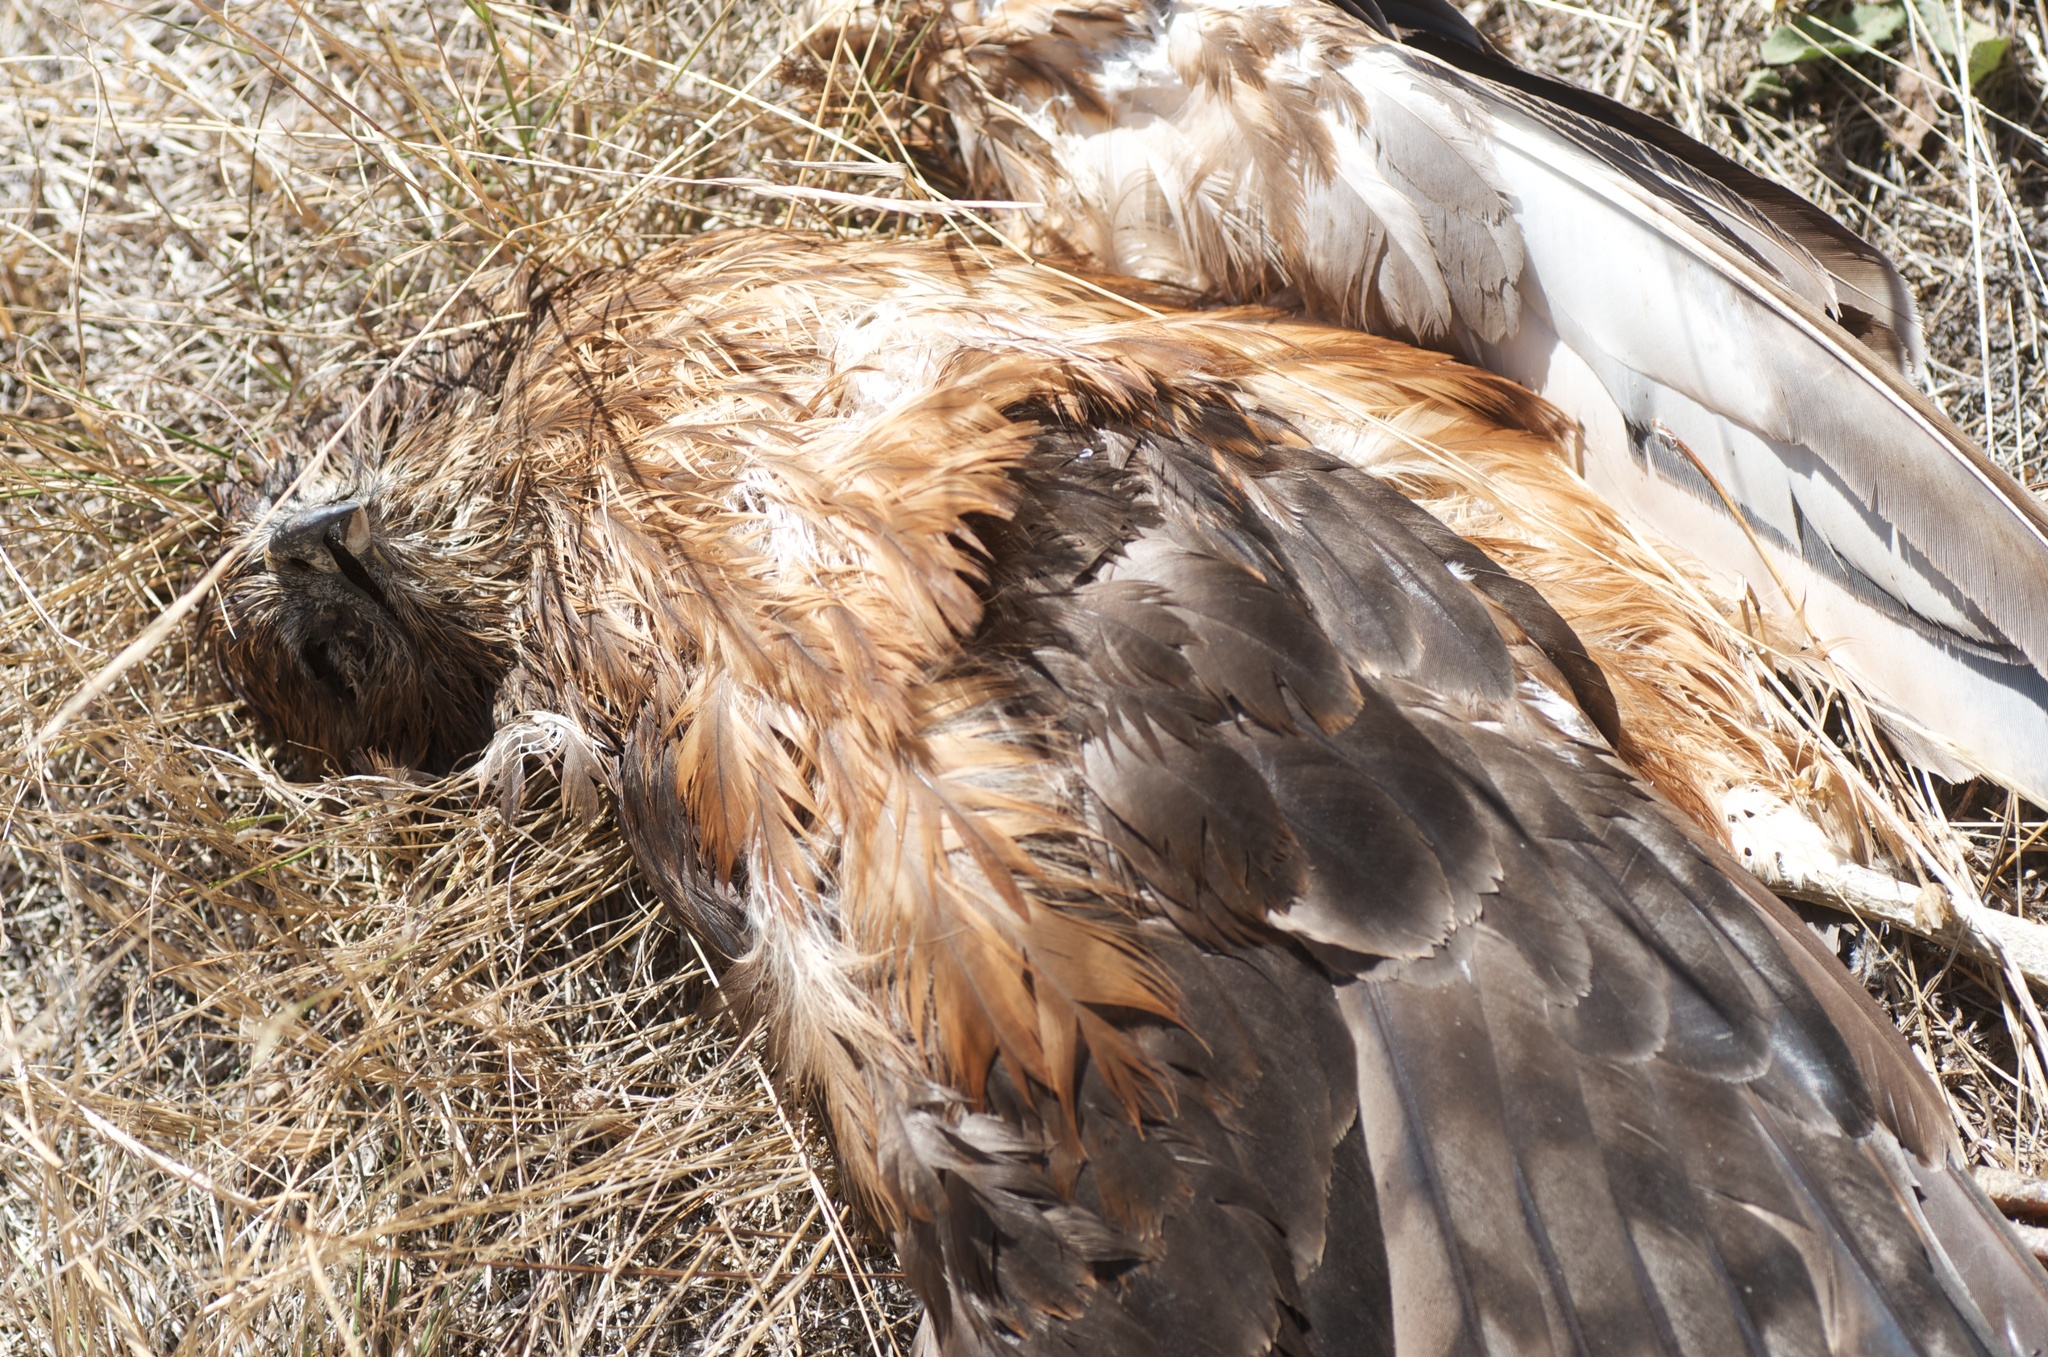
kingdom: Animalia
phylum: Chordata
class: Aves
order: Accipitriformes
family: Accipitridae
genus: Circus
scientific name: Circus approximans
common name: Swamp harrier
